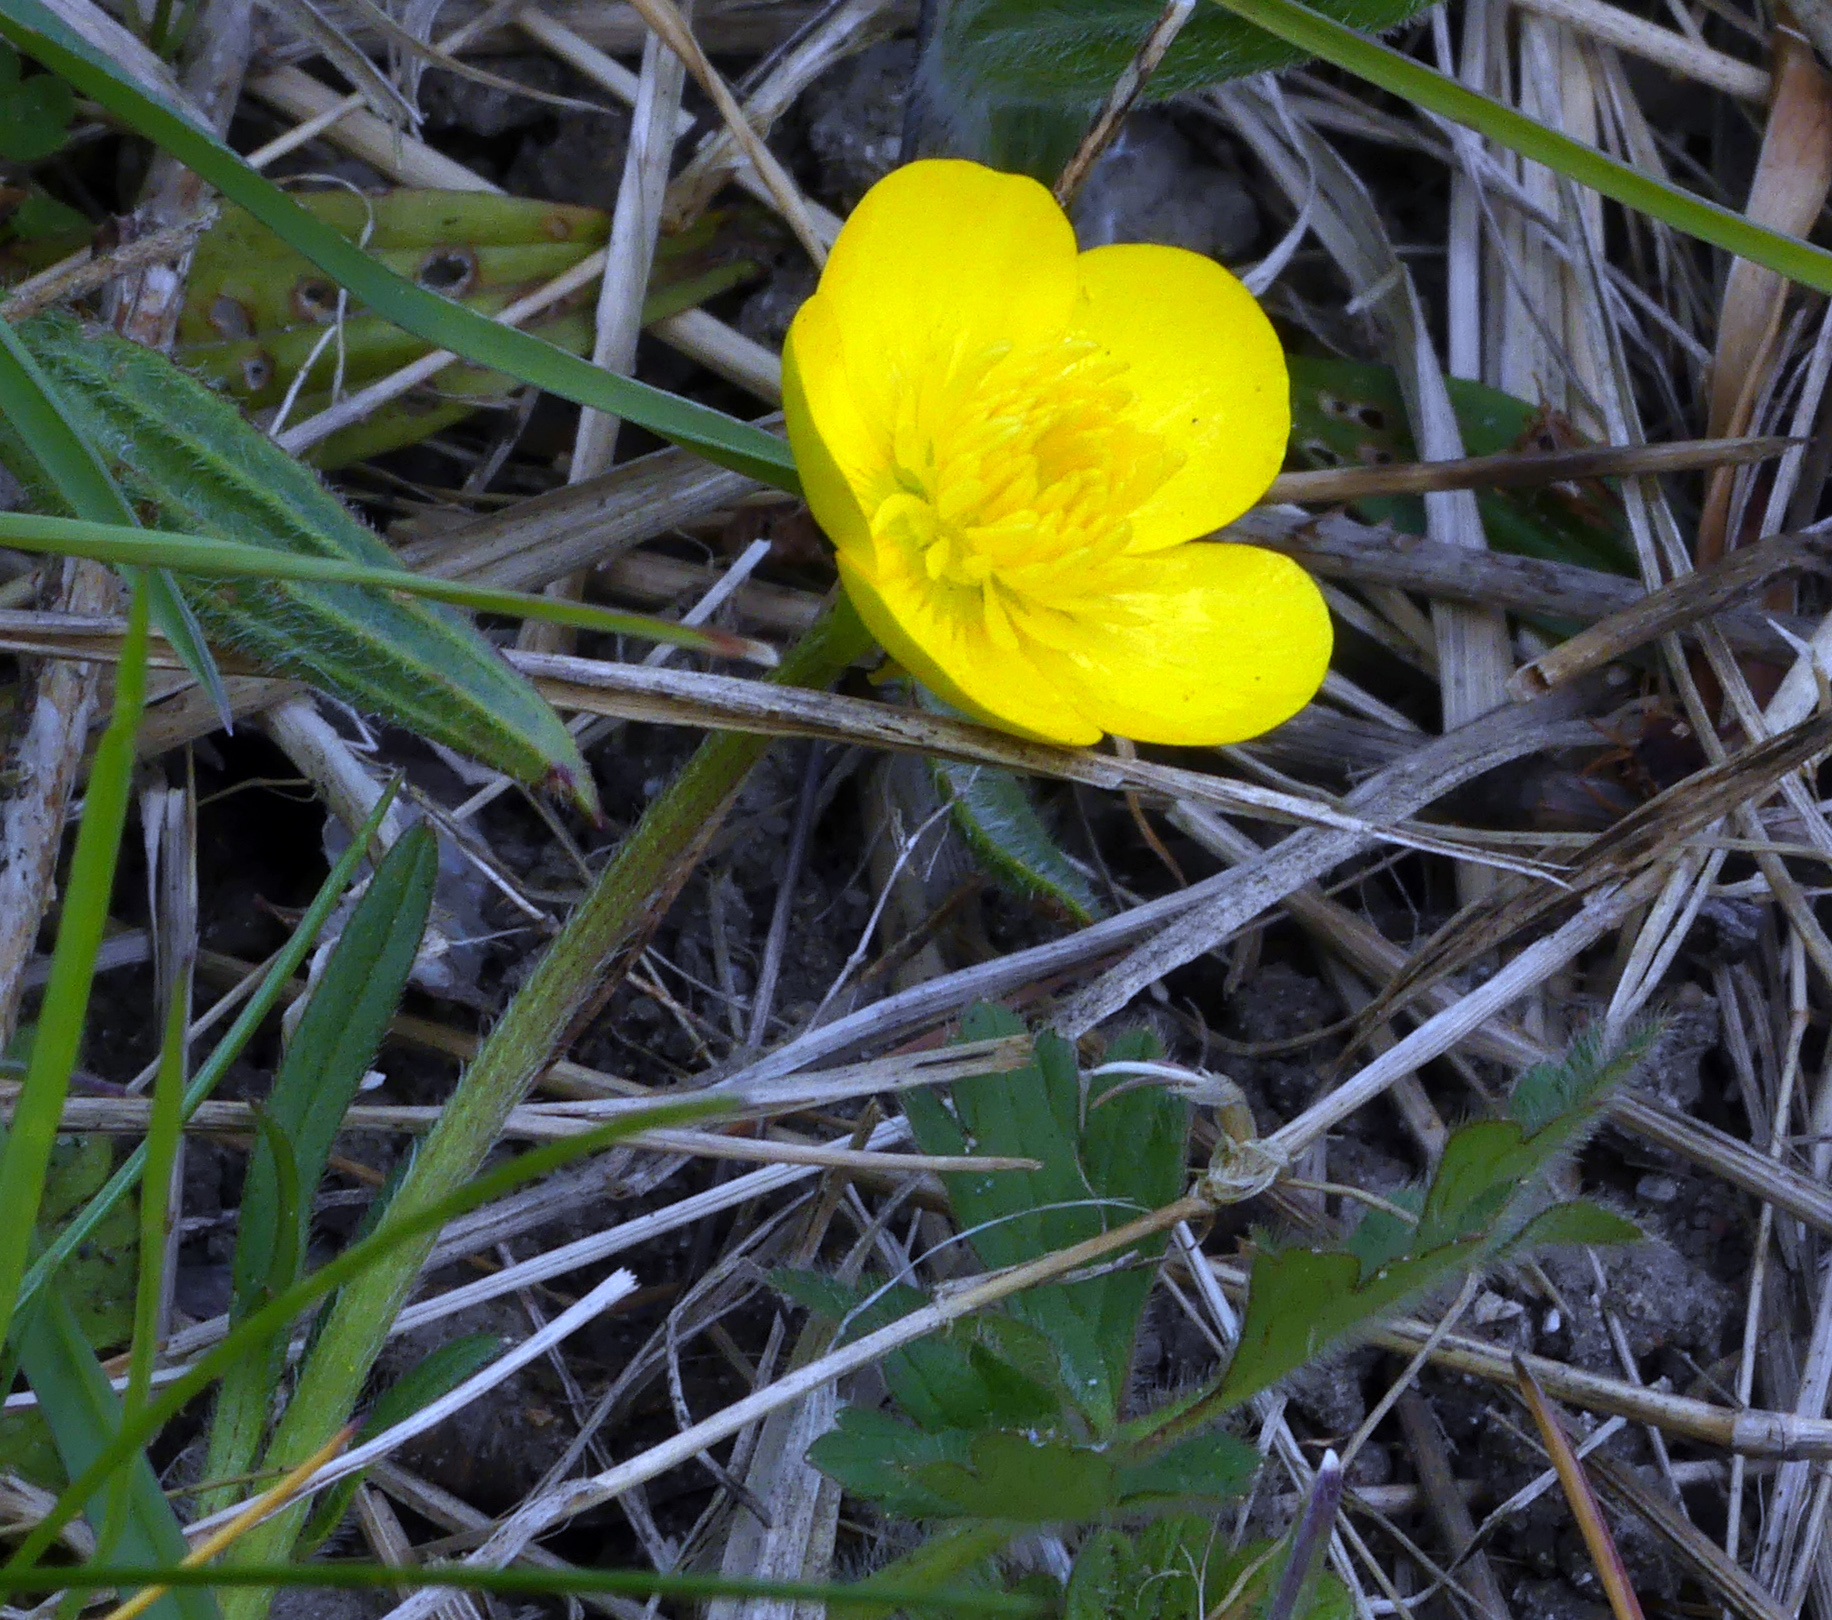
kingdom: Plantae
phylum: Tracheophyta
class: Magnoliopsida
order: Ranunculales
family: Ranunculaceae
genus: Ranunculus
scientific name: Ranunculus bulbosus
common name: Bulbous buttercup
